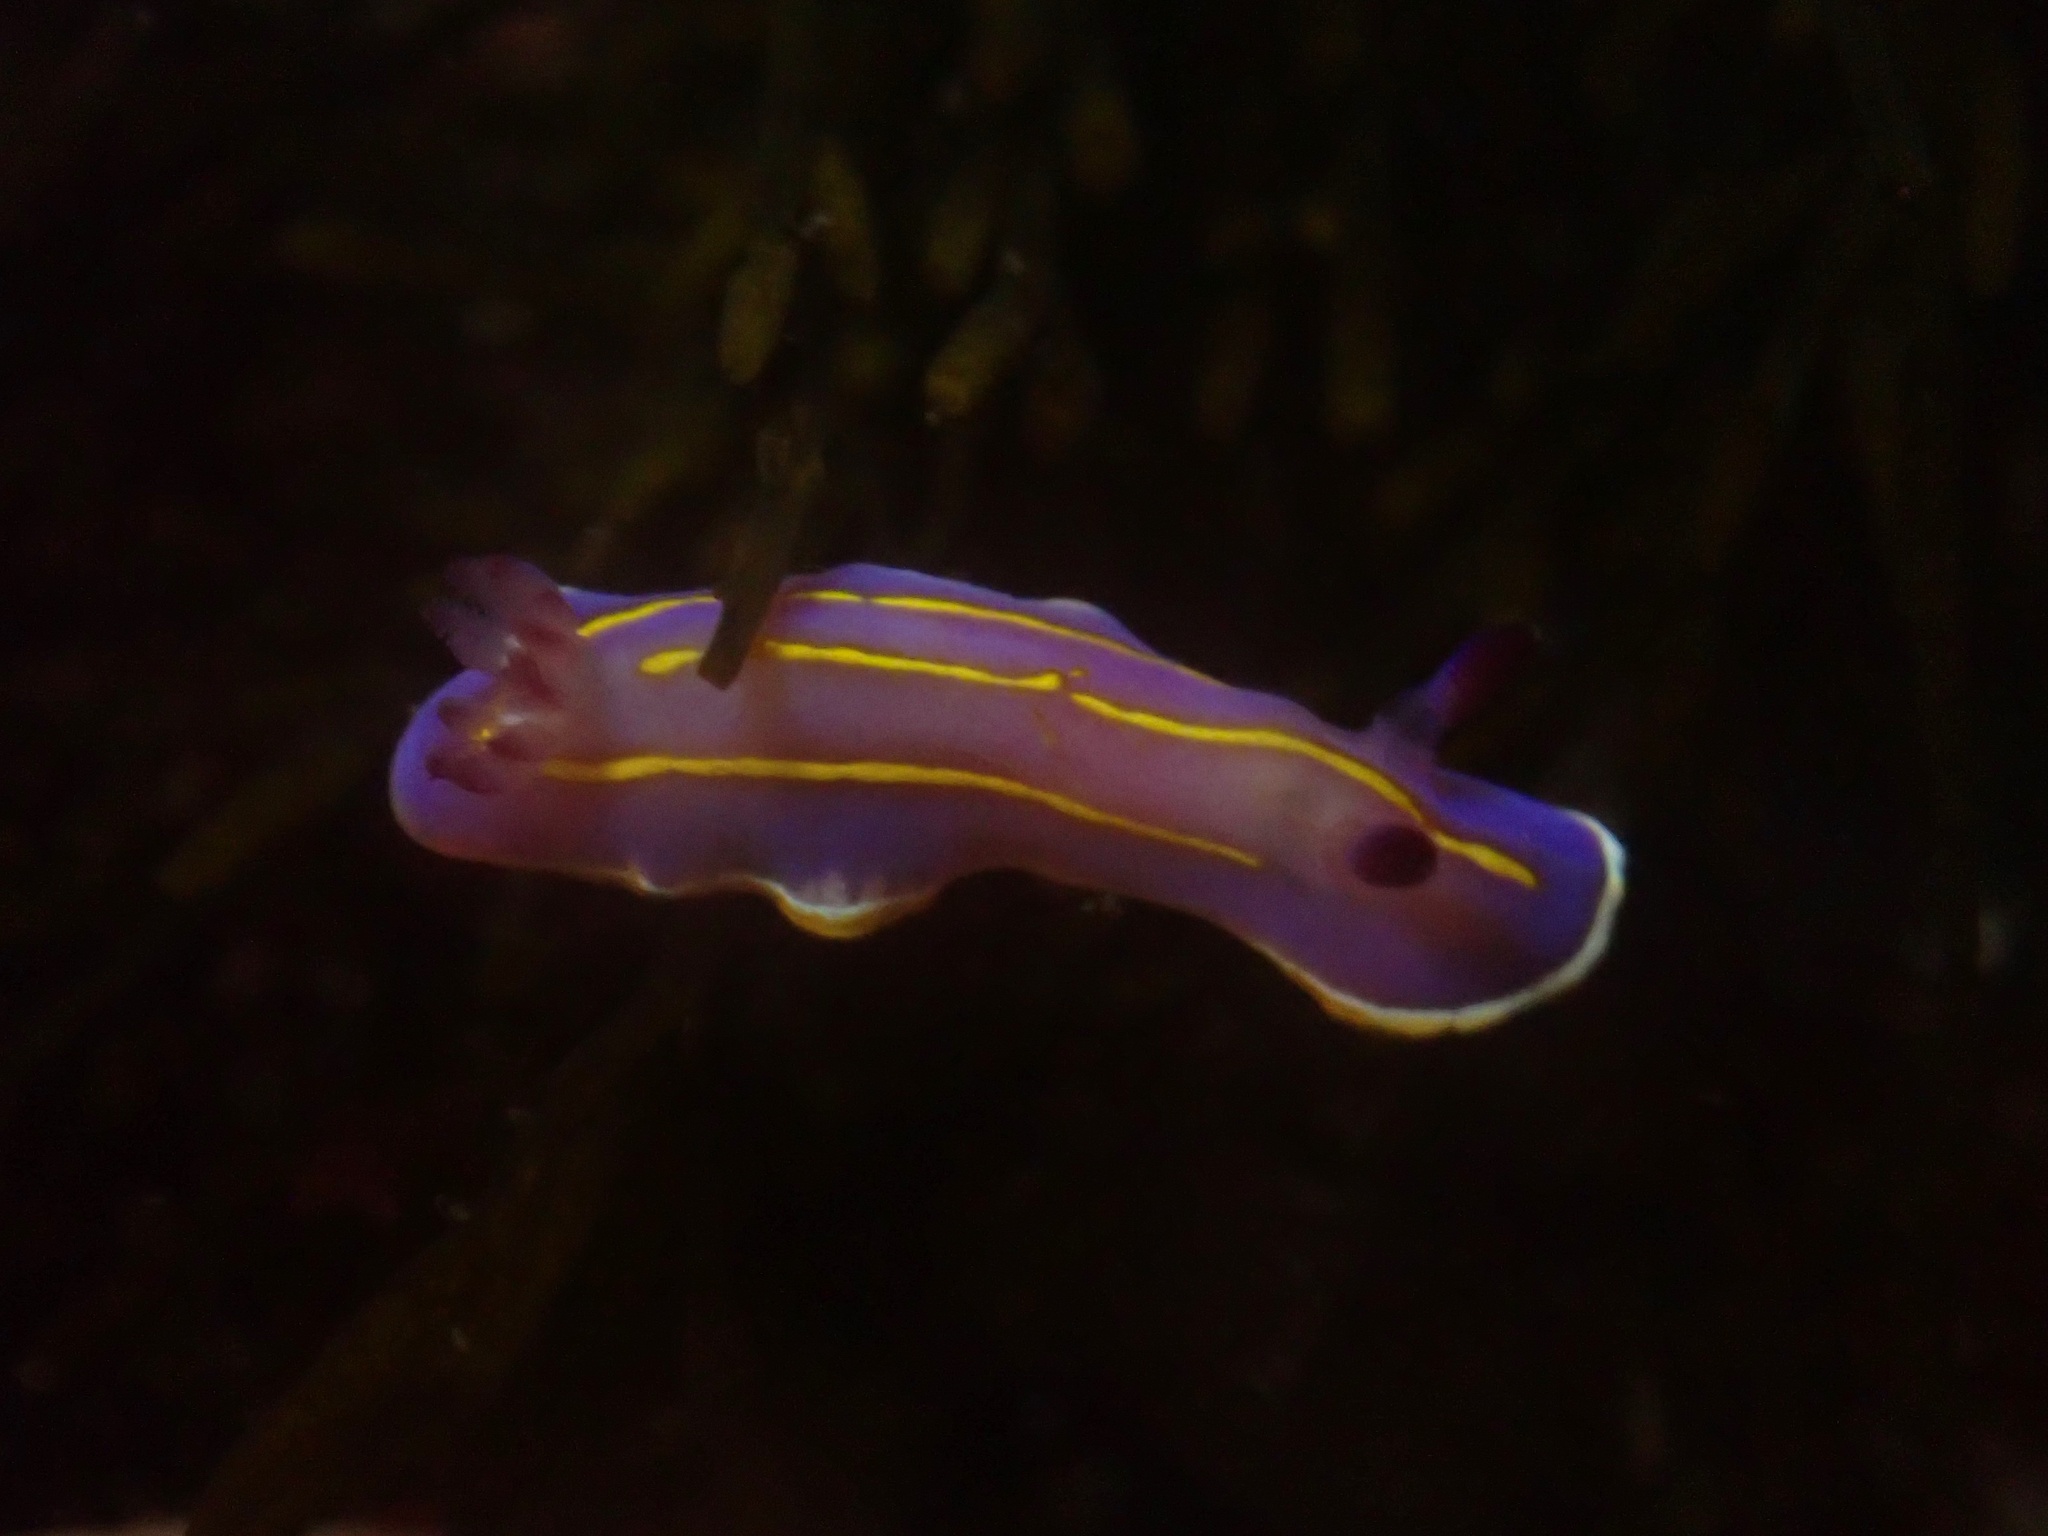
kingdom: Animalia
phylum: Mollusca
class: Gastropoda
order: Nudibranchia
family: Chromodorididae
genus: Felimida
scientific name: Felimida macfarlandi
